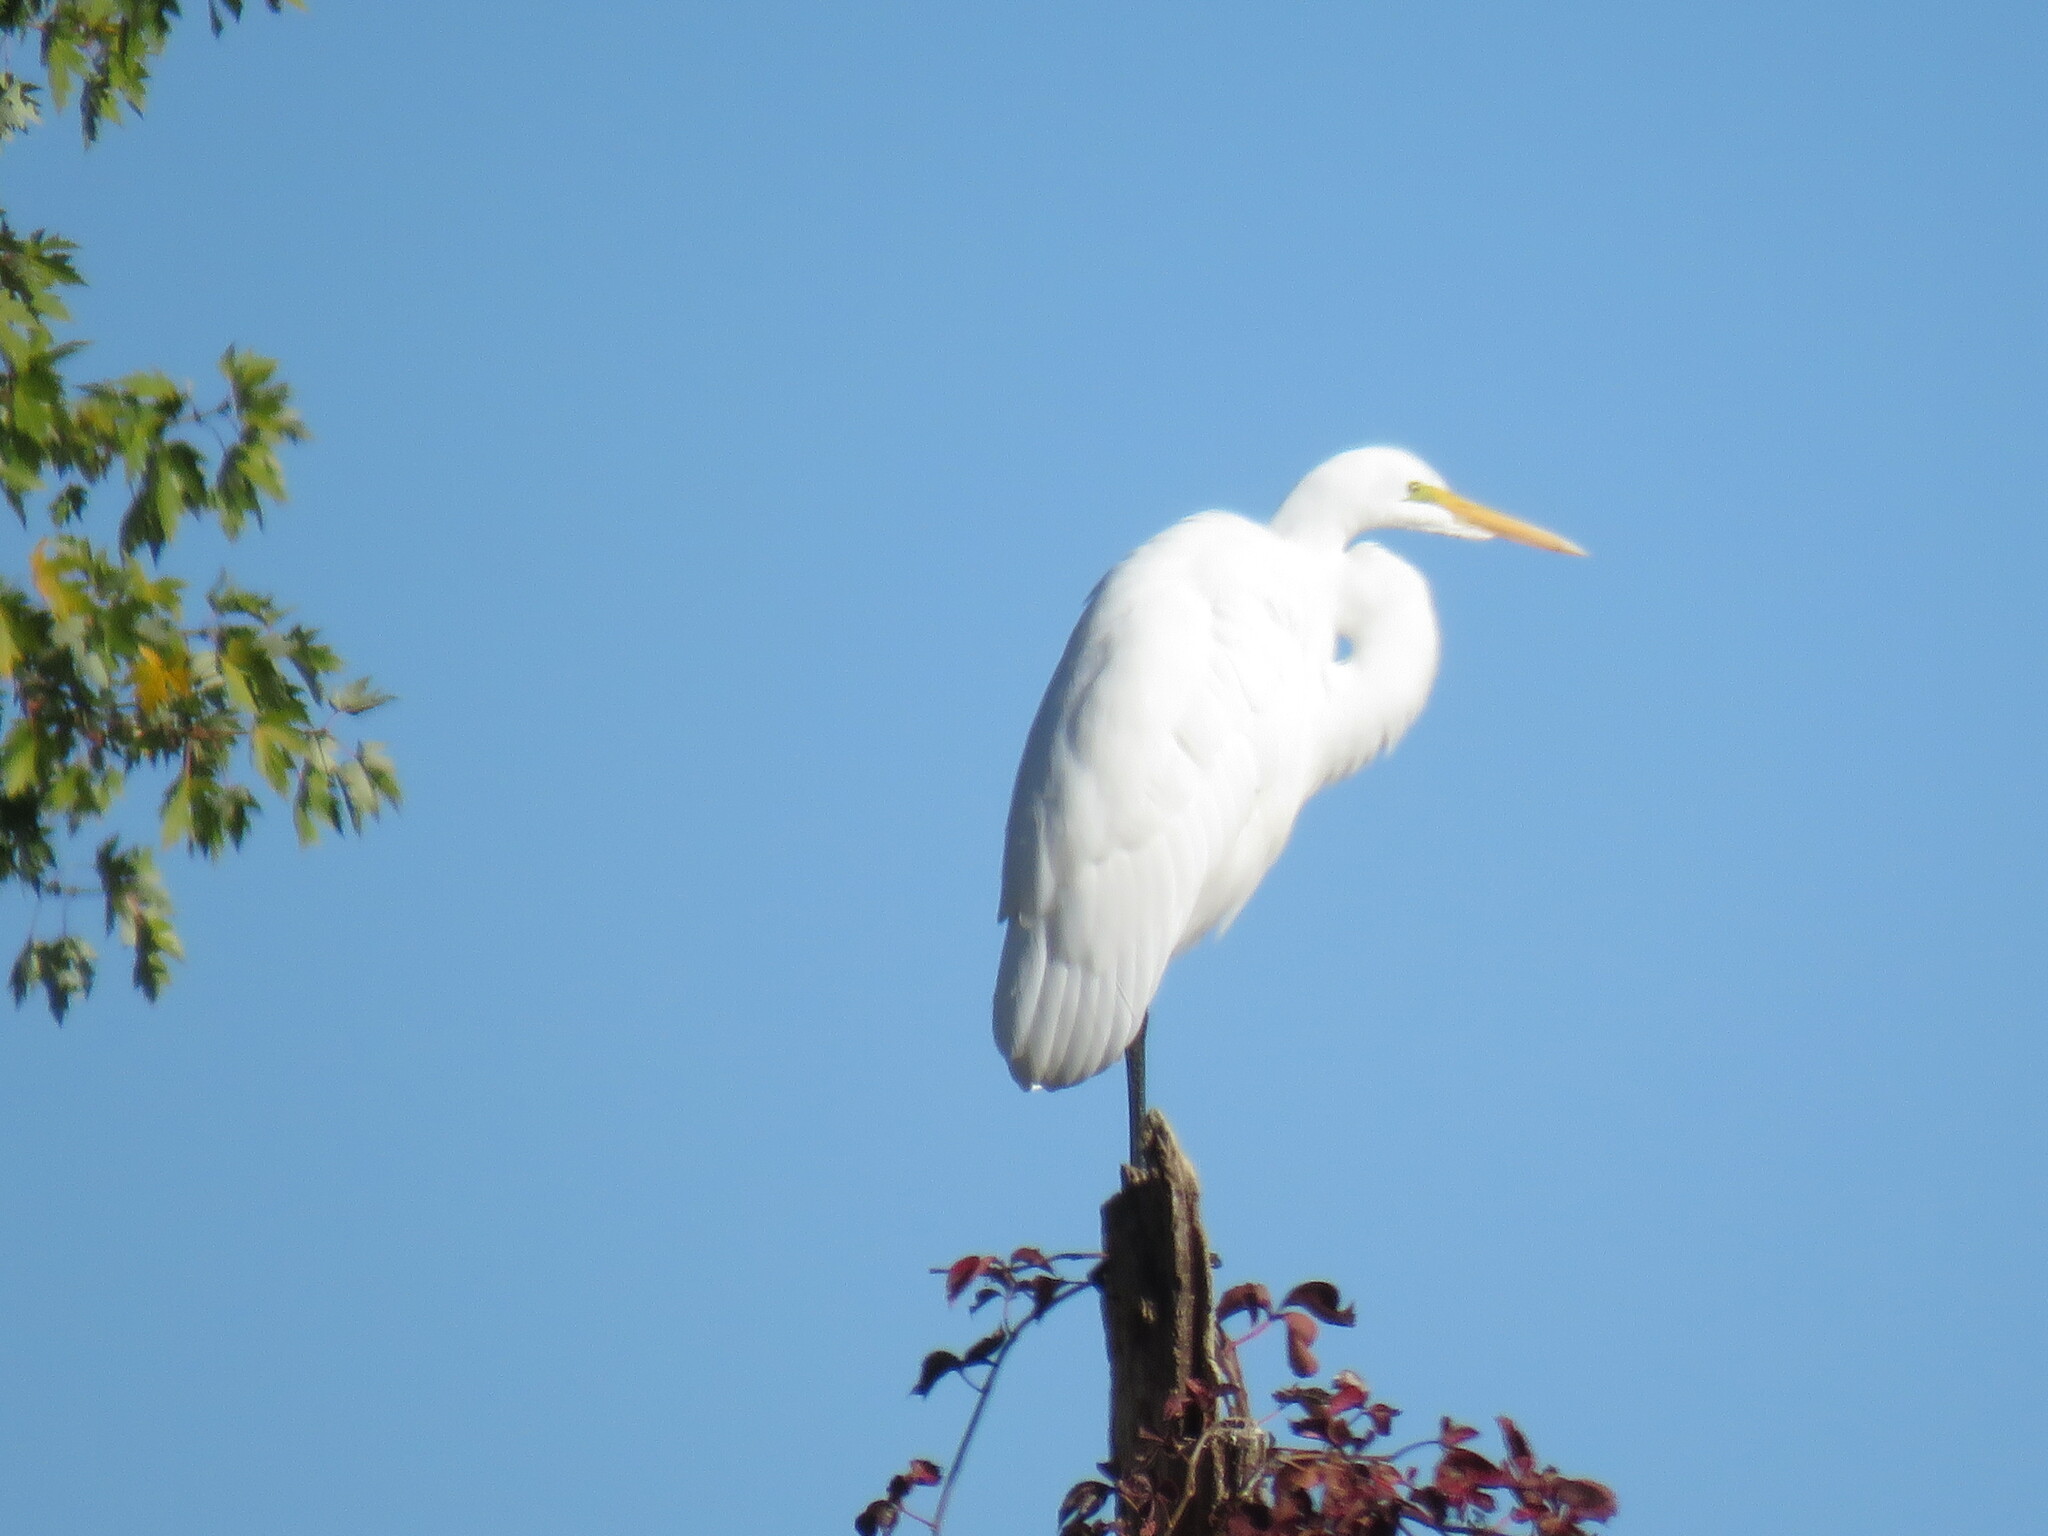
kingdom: Animalia
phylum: Chordata
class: Aves
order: Pelecaniformes
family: Ardeidae
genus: Ardea
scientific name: Ardea alba
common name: Great egret
